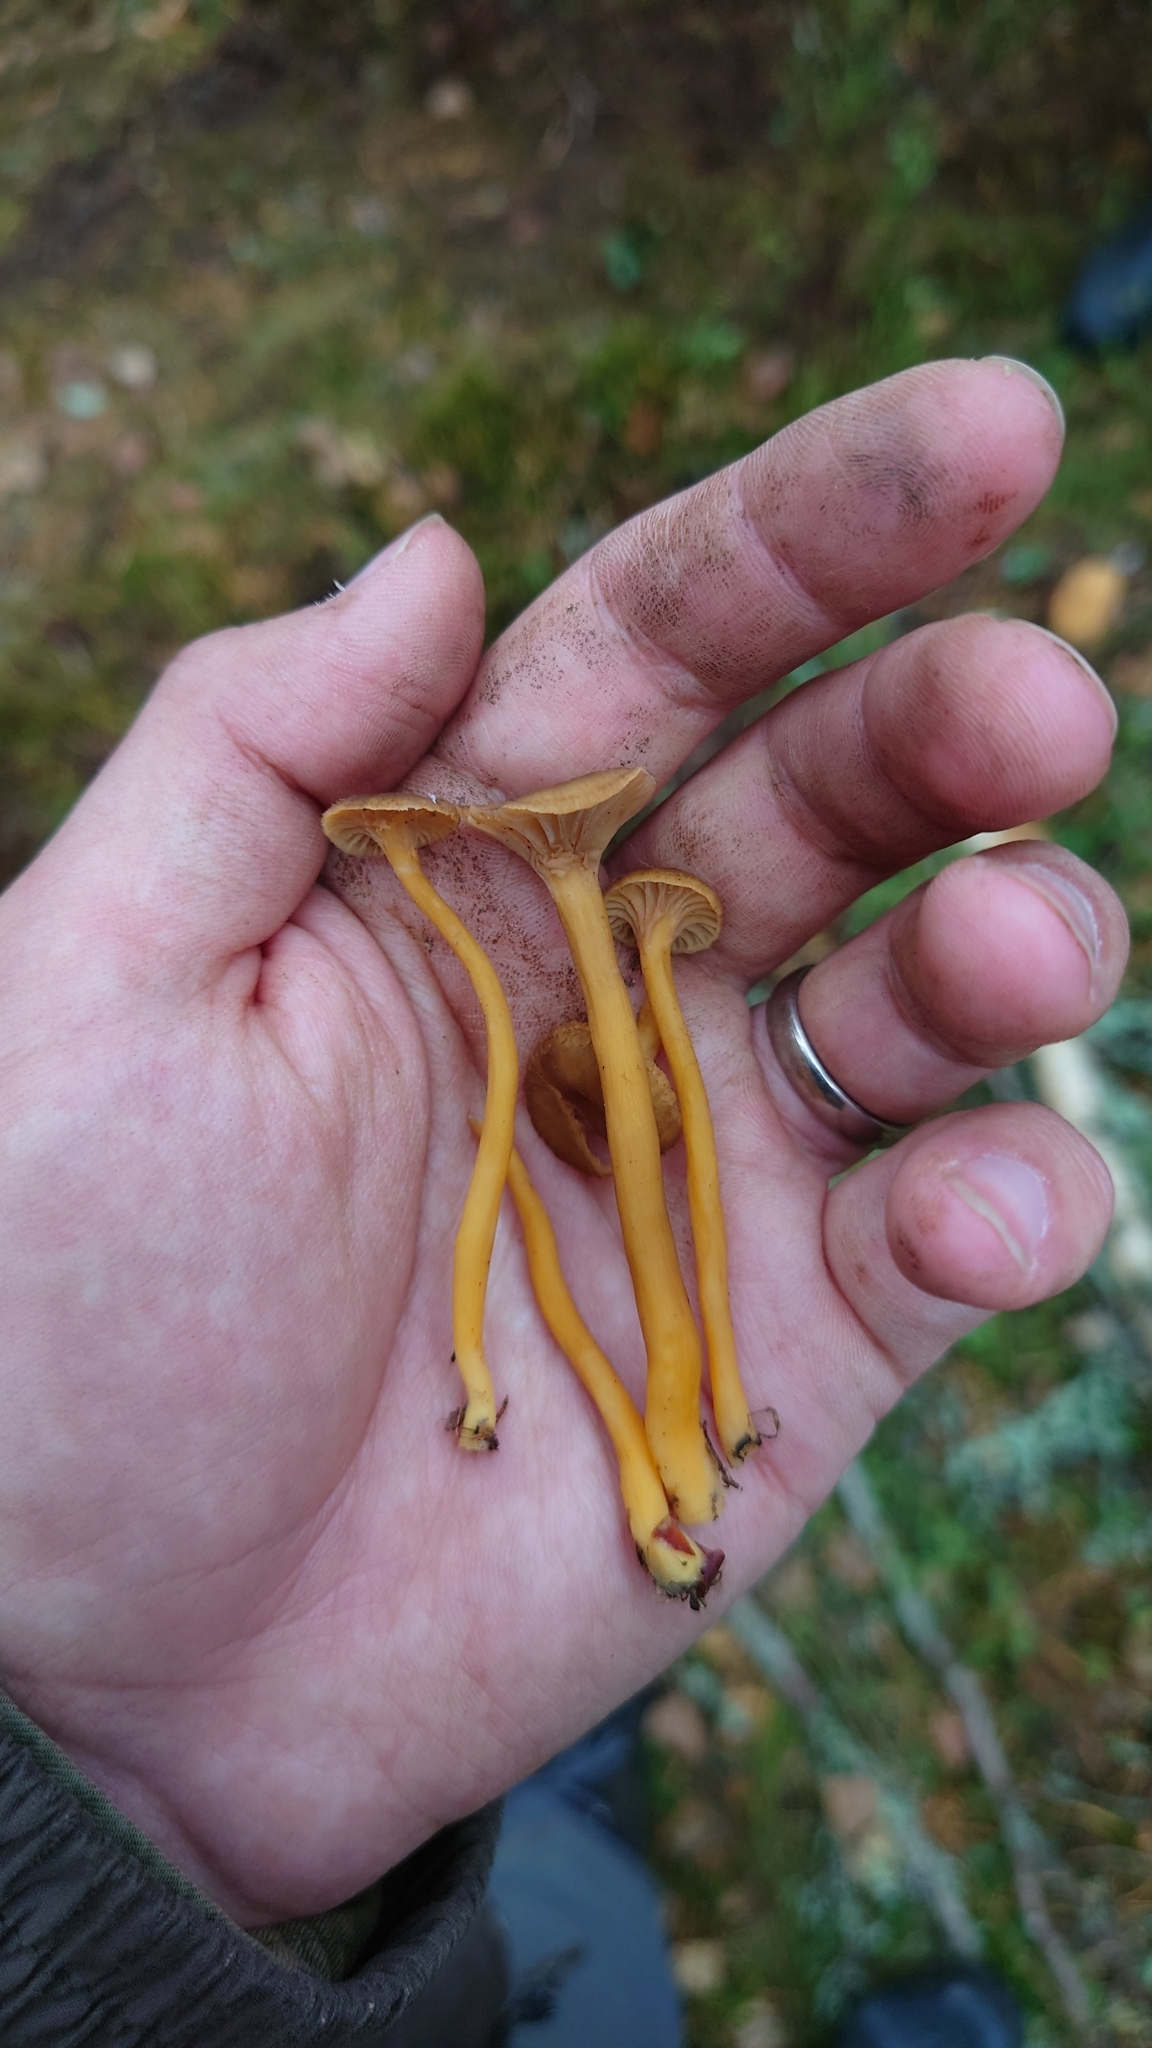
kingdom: Fungi
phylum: Basidiomycota
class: Agaricomycetes
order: Cantharellales
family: Hydnaceae
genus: Craterellus
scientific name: Craterellus tubaeformis
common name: Yellowfoot
